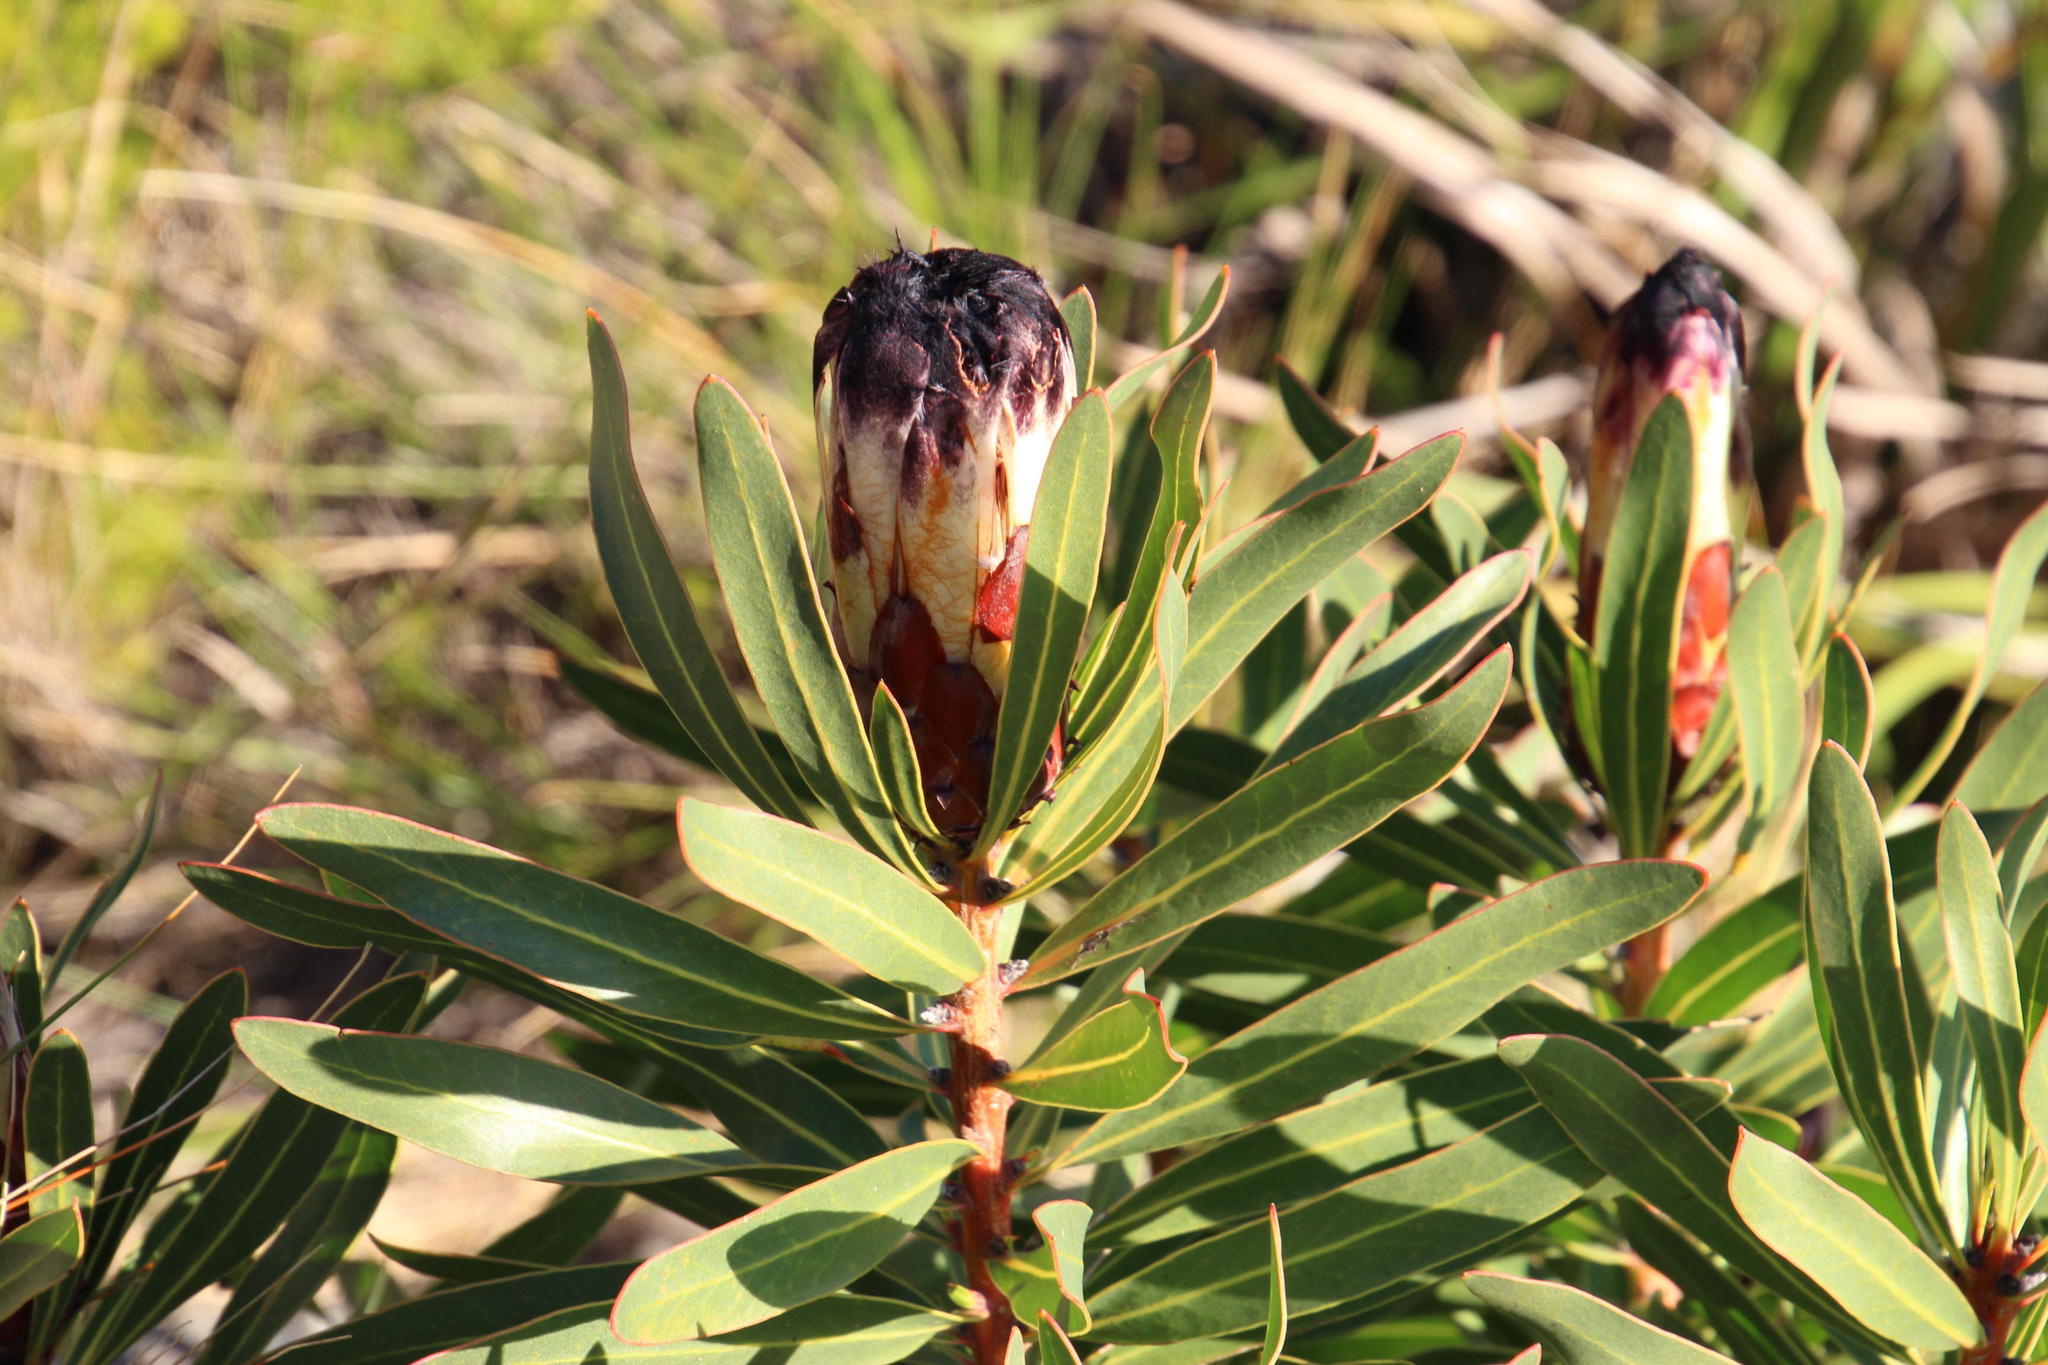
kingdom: Plantae
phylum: Tracheophyta
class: Magnoliopsida
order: Proteales
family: Proteaceae
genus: Protea
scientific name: Protea lepidocarpodendron
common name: Black-bearded protea
